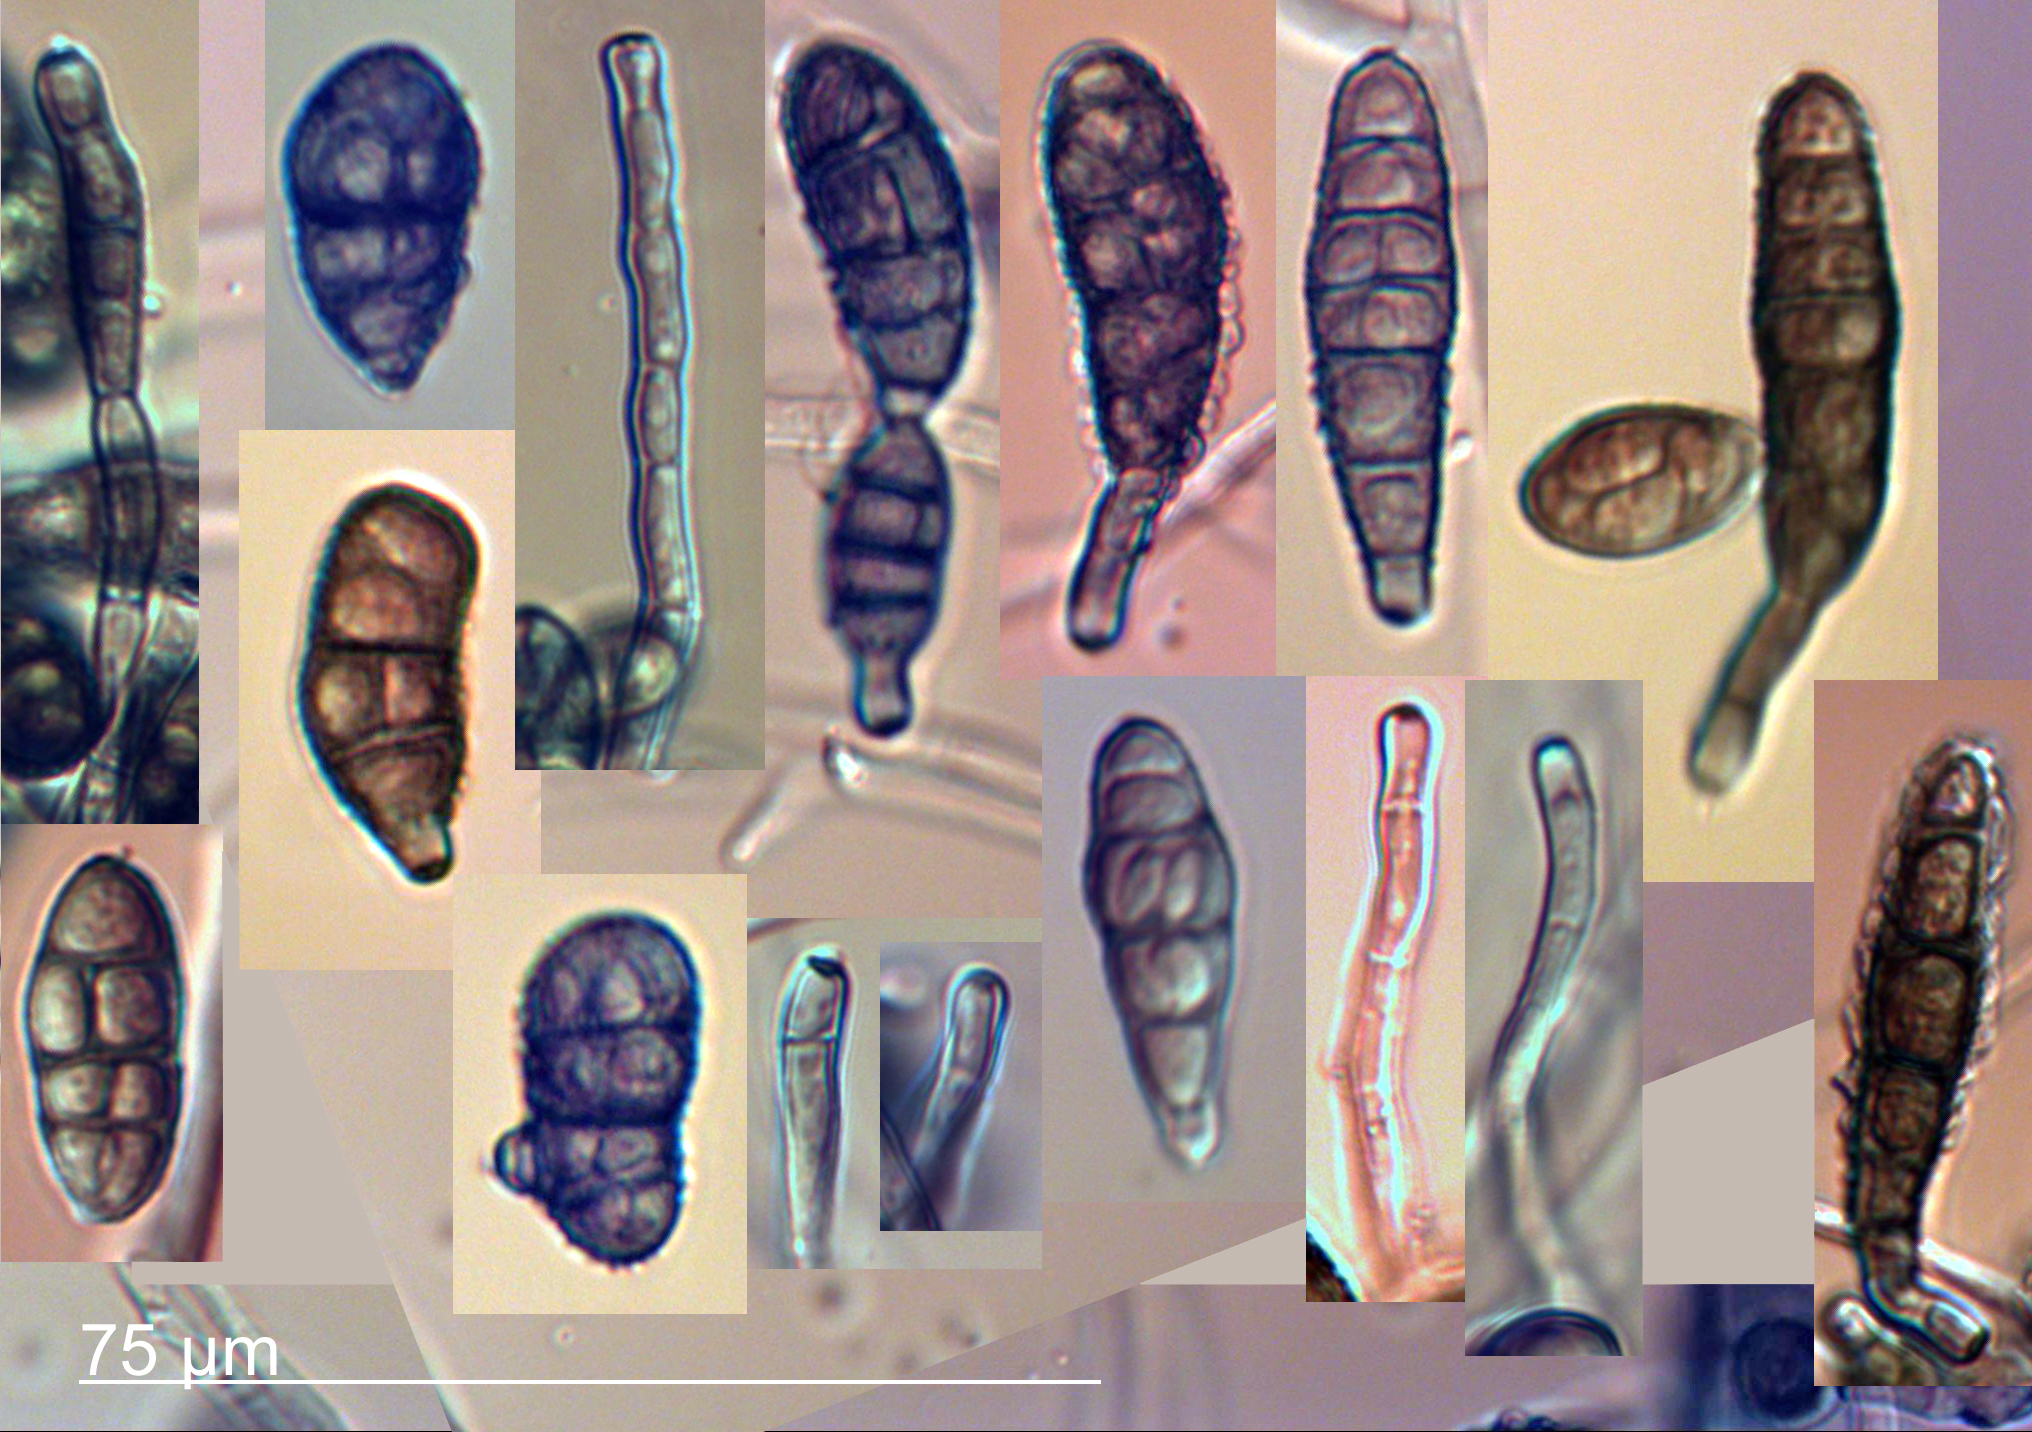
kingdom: Fungi
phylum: Ascomycota
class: Dothideomycetes
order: Pleosporales
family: Pleosporaceae
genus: Alternaria
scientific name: Alternaria alternata
